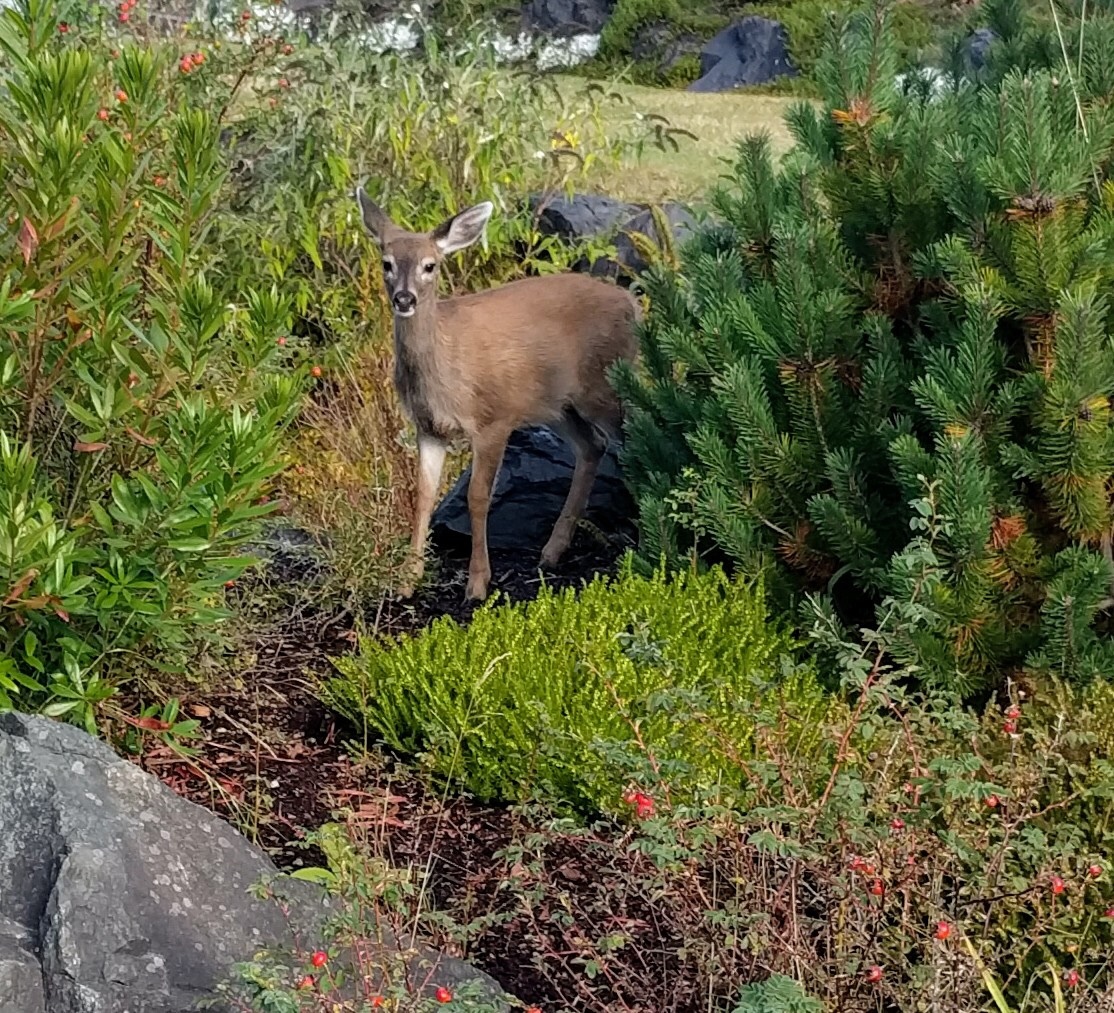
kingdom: Animalia
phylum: Chordata
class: Mammalia
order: Artiodactyla
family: Cervidae
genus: Odocoileus
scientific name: Odocoileus hemionus
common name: Mule deer
